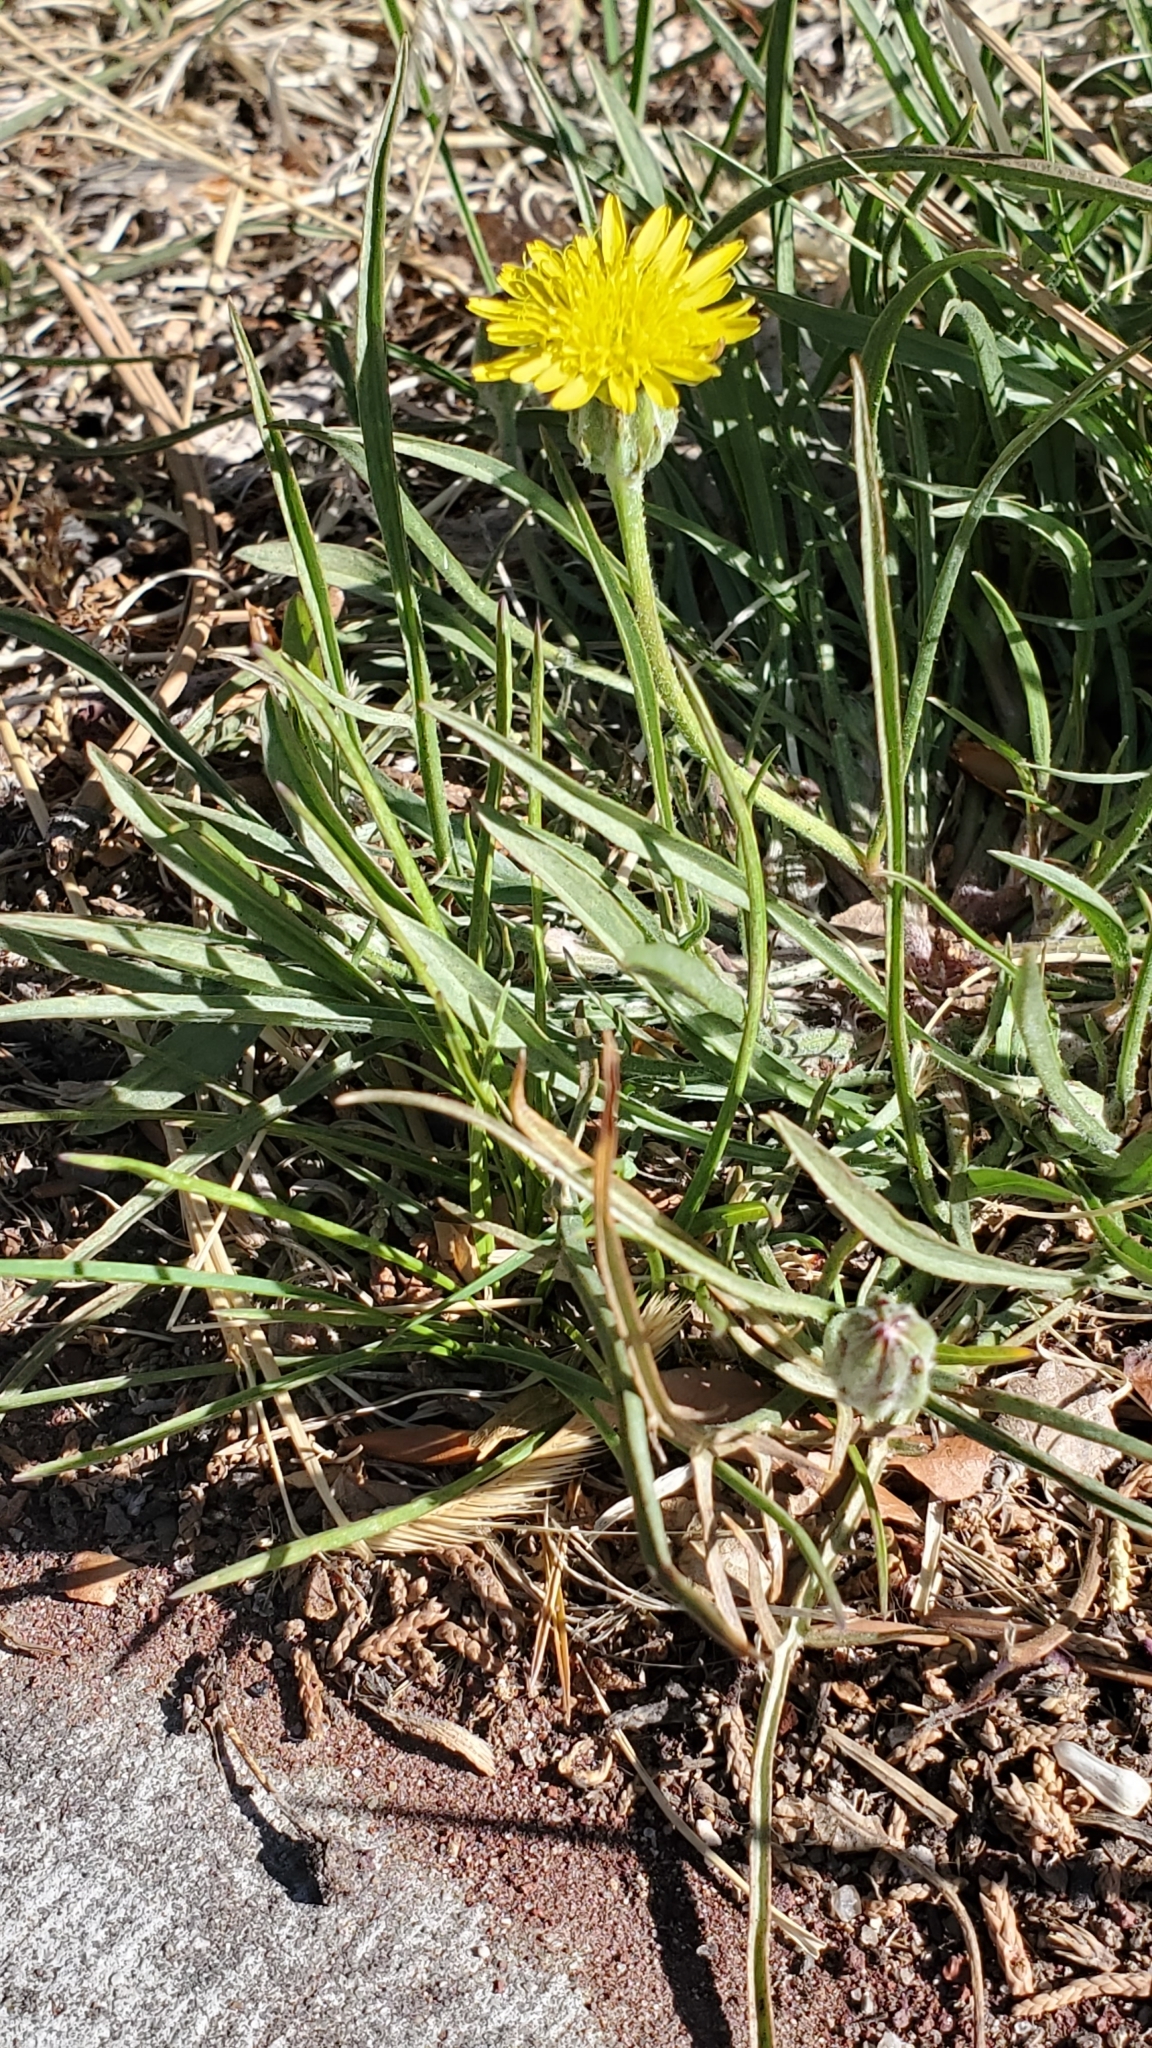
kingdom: Plantae
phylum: Tracheophyta
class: Magnoliopsida
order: Asterales
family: Asteraceae
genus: Scorzonera
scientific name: Scorzonera laciniata
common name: Cutleaf vipergrass
